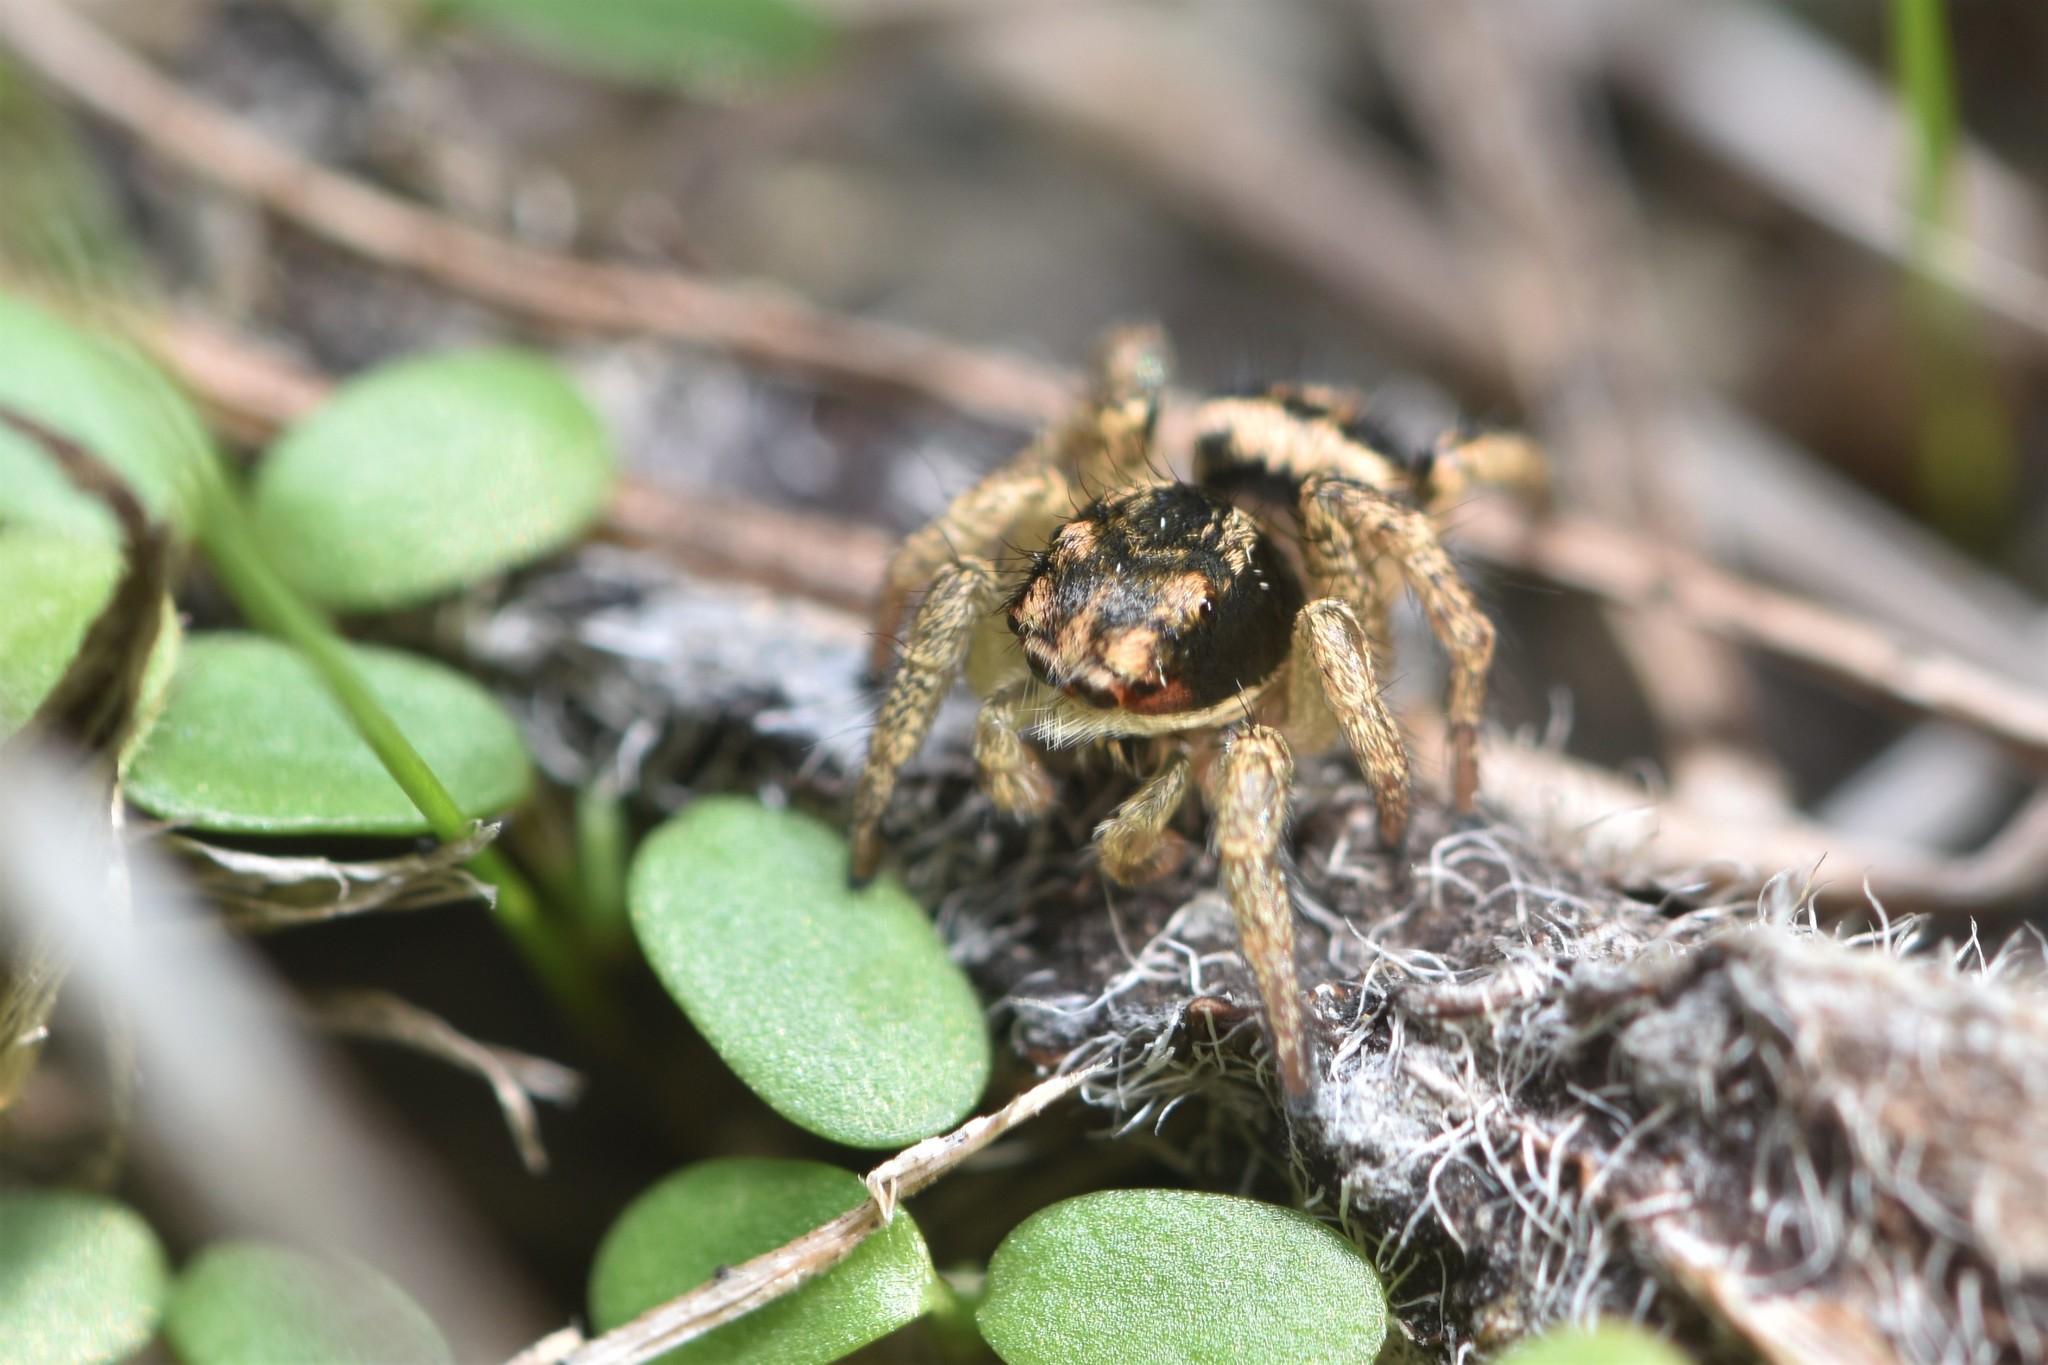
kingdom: Animalia
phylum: Arthropoda
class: Arachnida
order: Araneae
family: Salticidae
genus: Habronattus
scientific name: Habronattus ophrys
